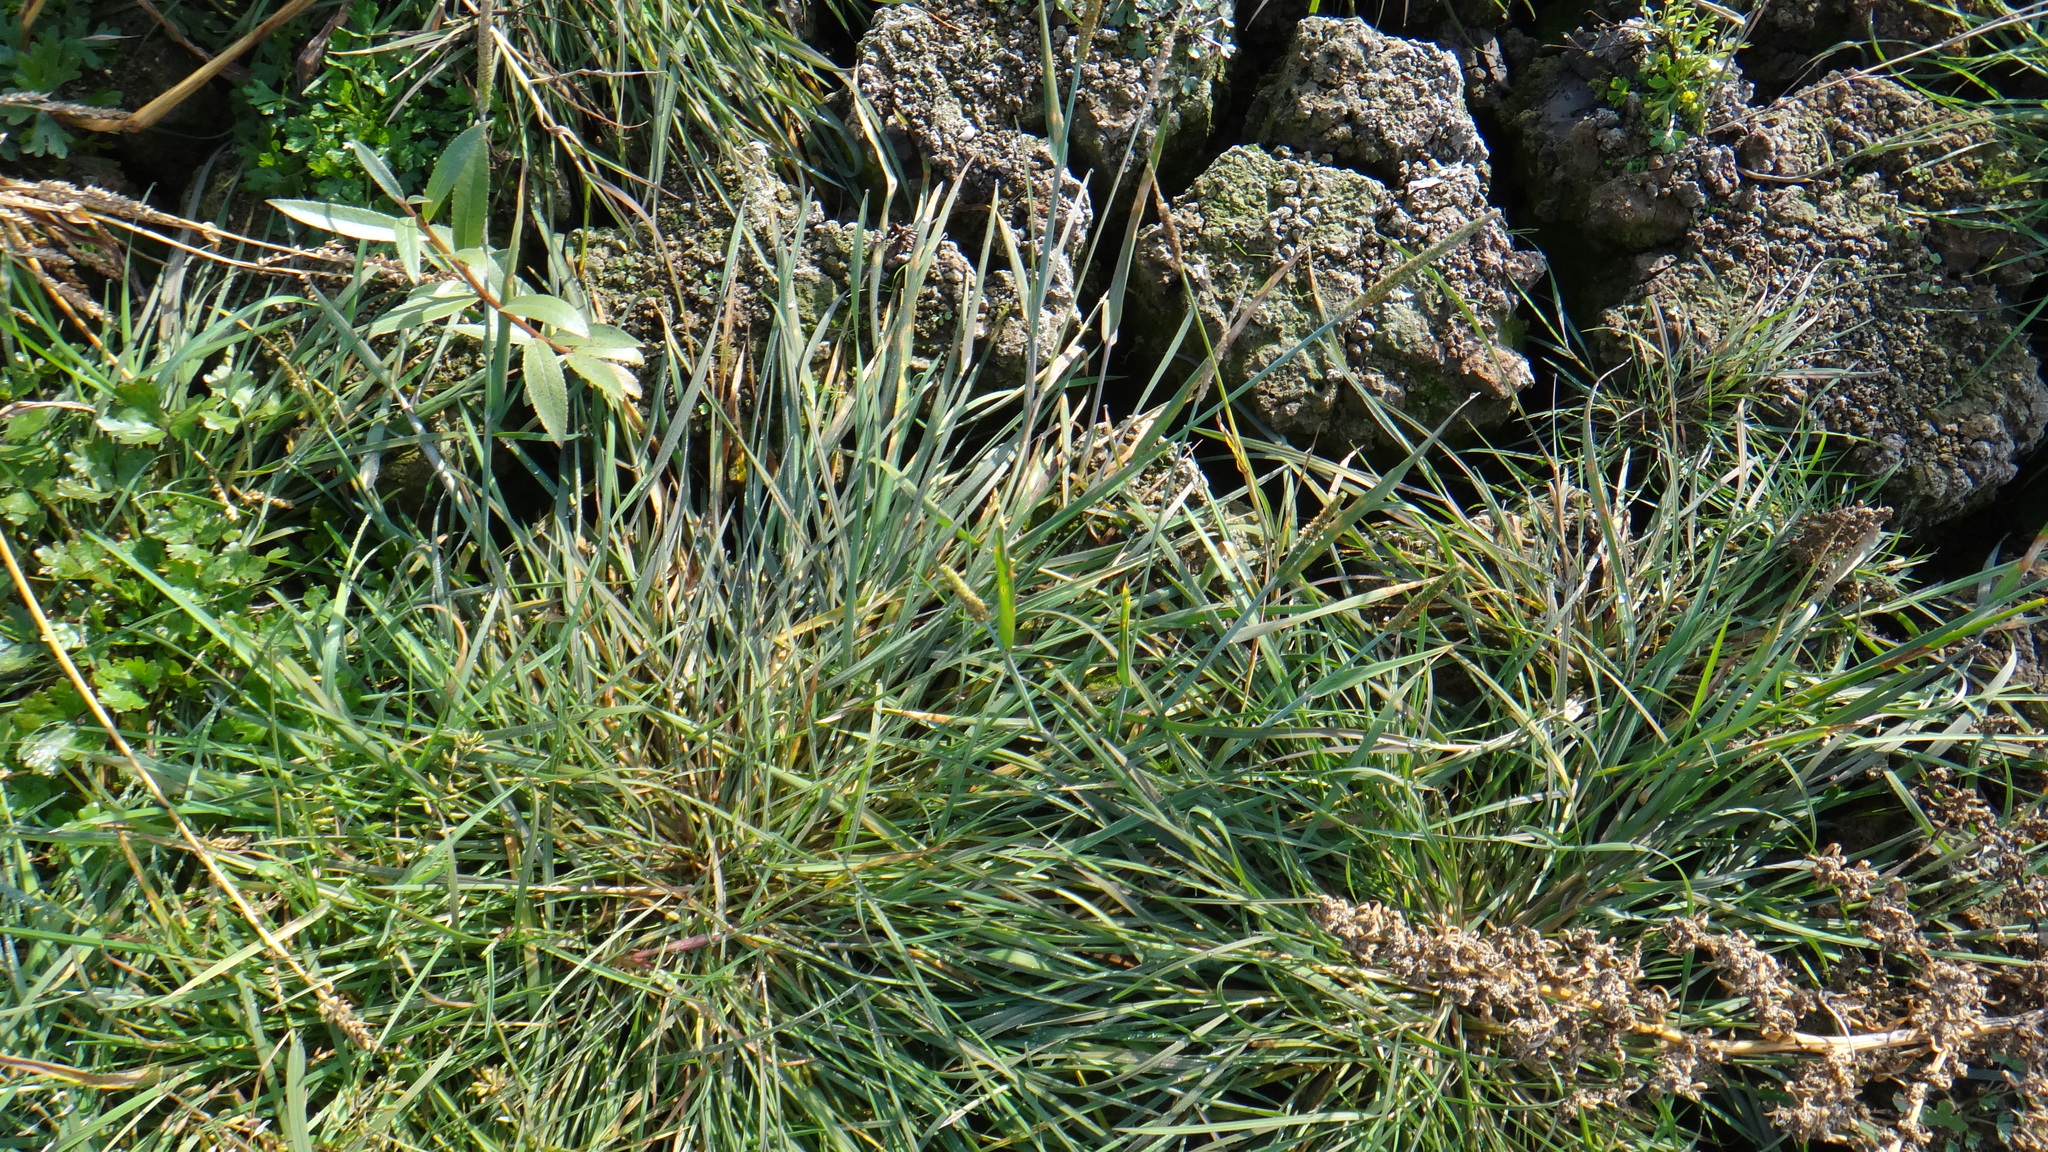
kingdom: Plantae
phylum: Tracheophyta
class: Liliopsida
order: Poales
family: Poaceae
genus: Alopecurus
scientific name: Alopecurus aequalis
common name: Orange foxtail
